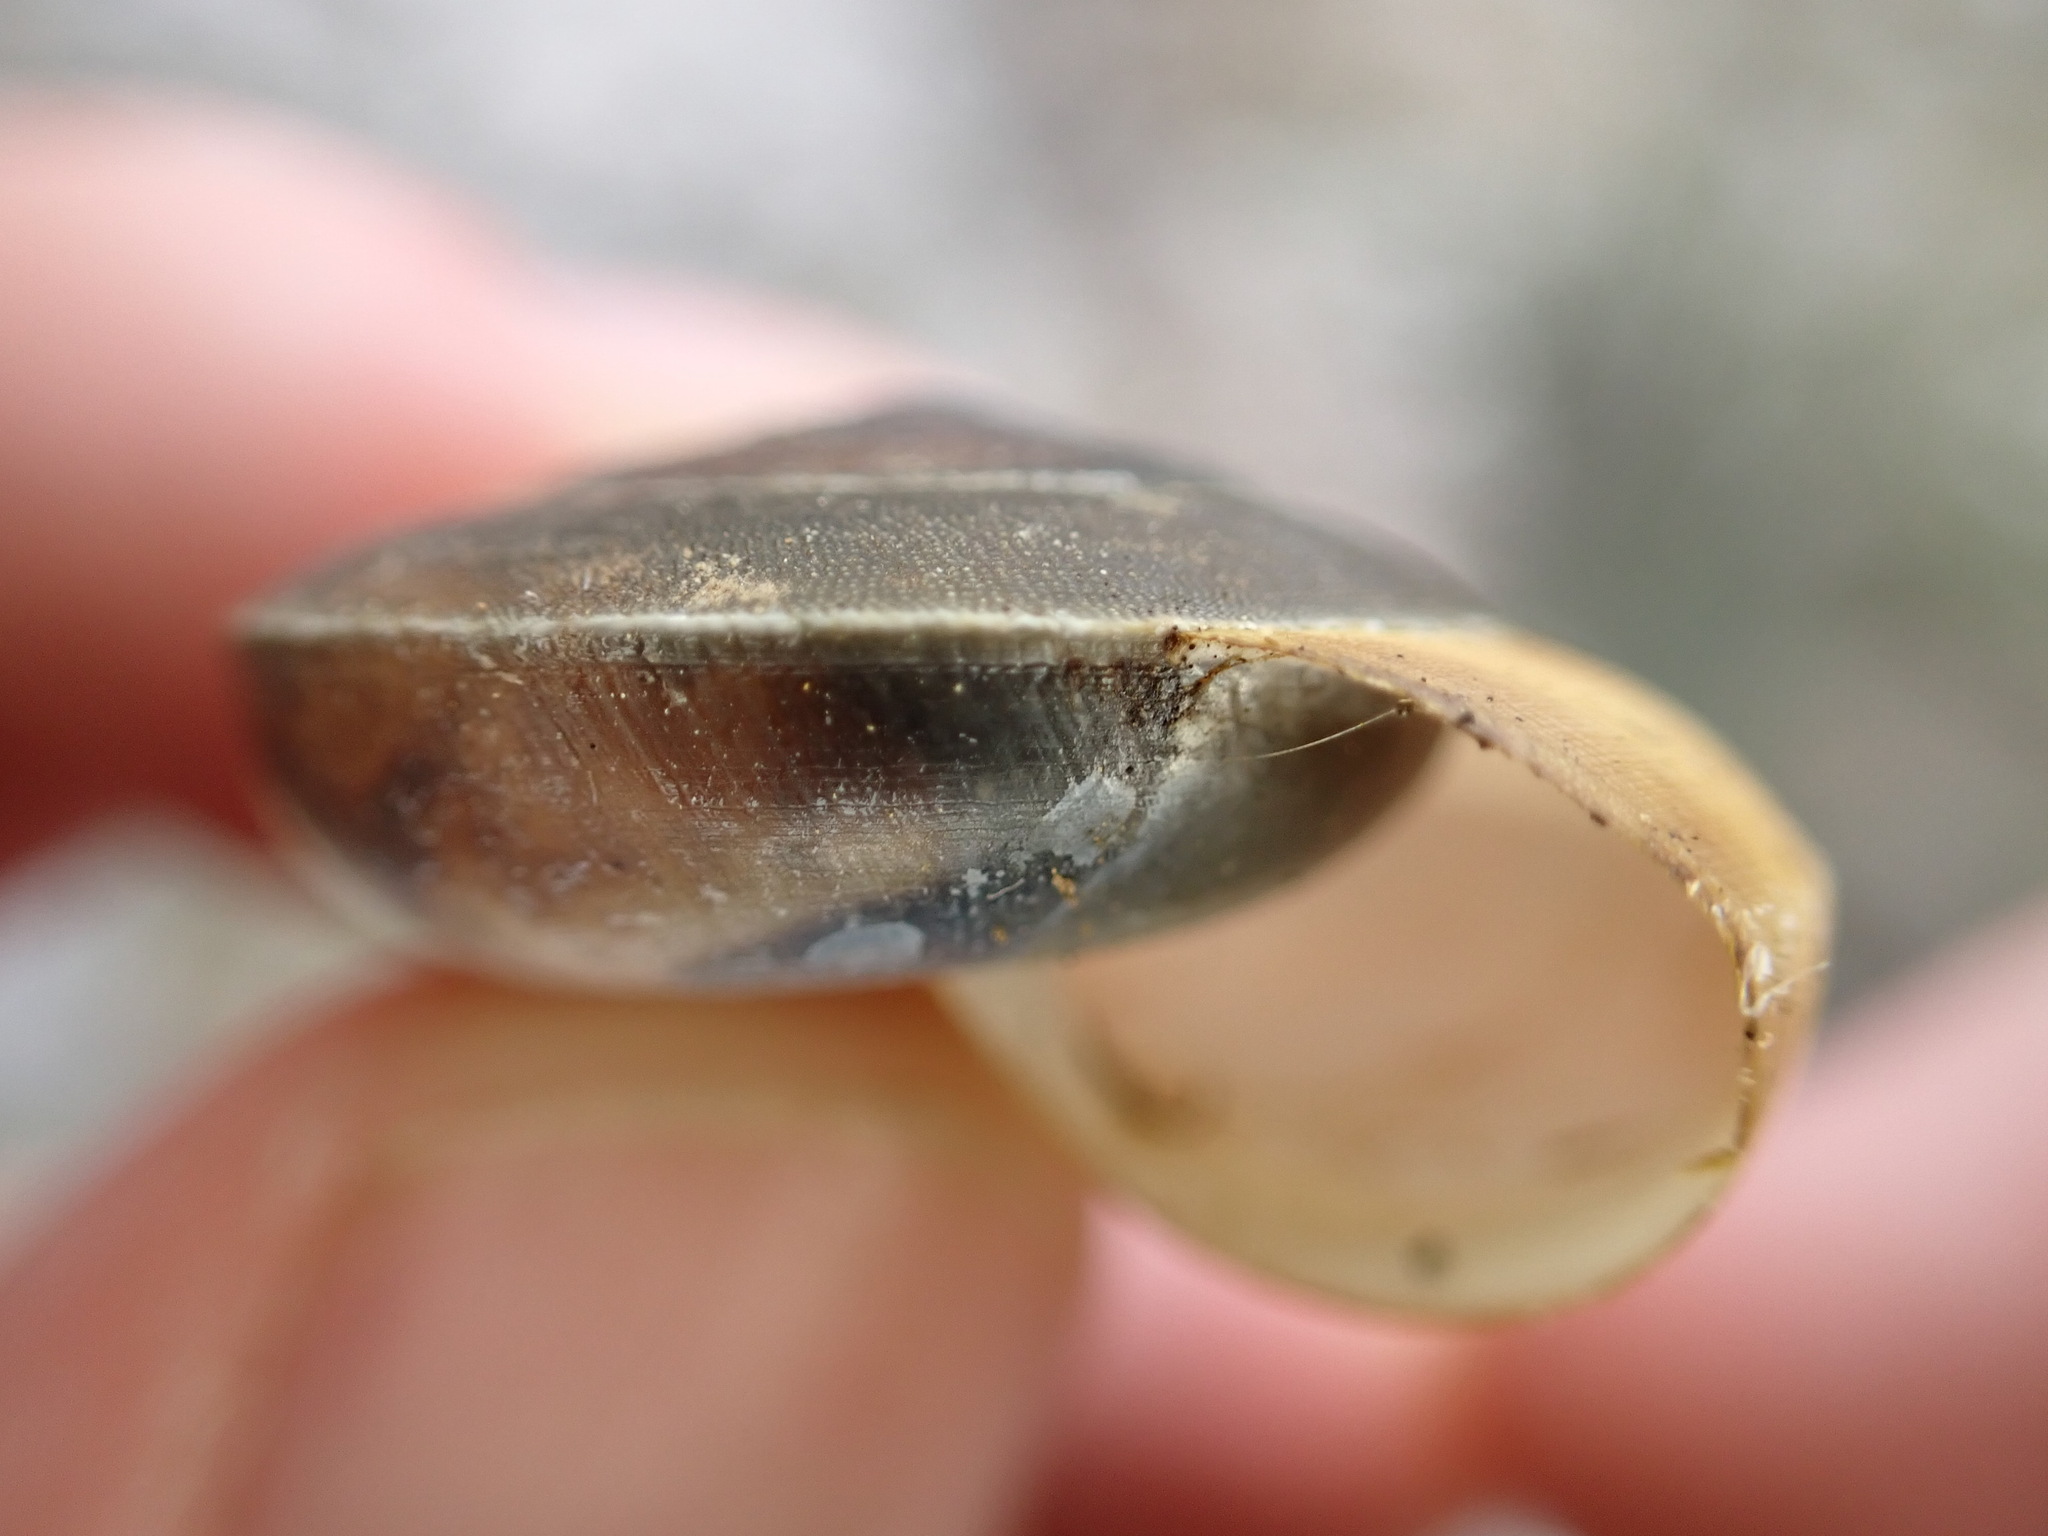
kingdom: Animalia
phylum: Mollusca
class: Gastropoda
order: Stylommatophora
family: Zonitidae
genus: Zonites
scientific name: Zonites algirus
